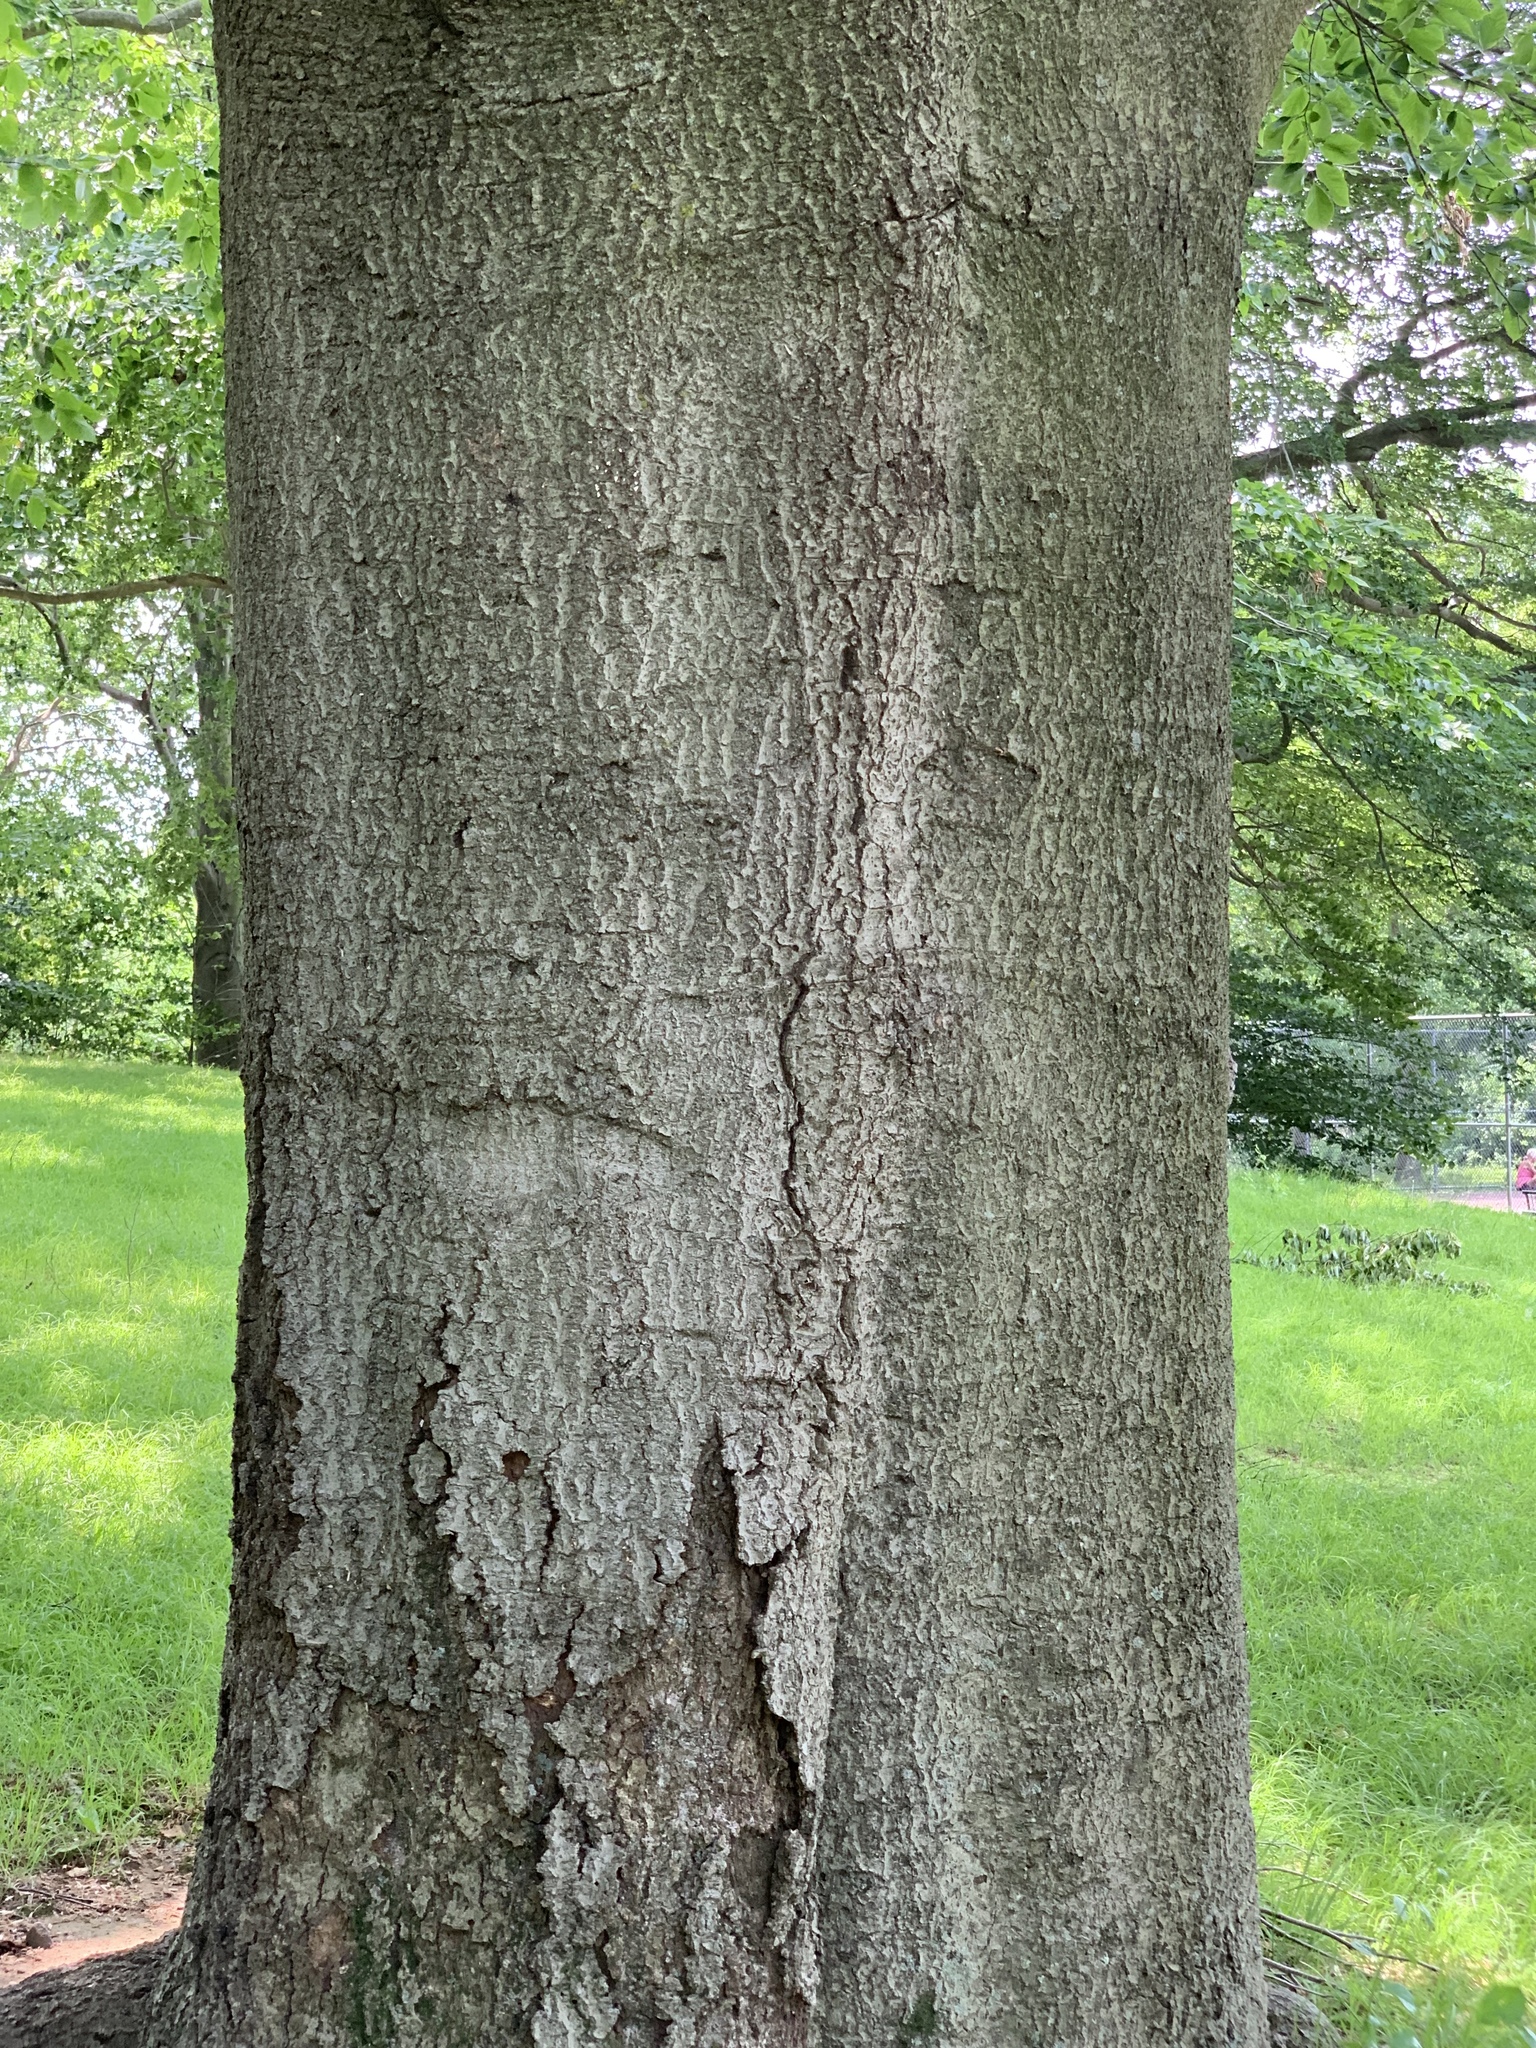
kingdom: Plantae
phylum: Tracheophyta
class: Magnoliopsida
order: Fagales
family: Fagaceae
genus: Fagus
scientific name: Fagus grandifolia
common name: American beech
